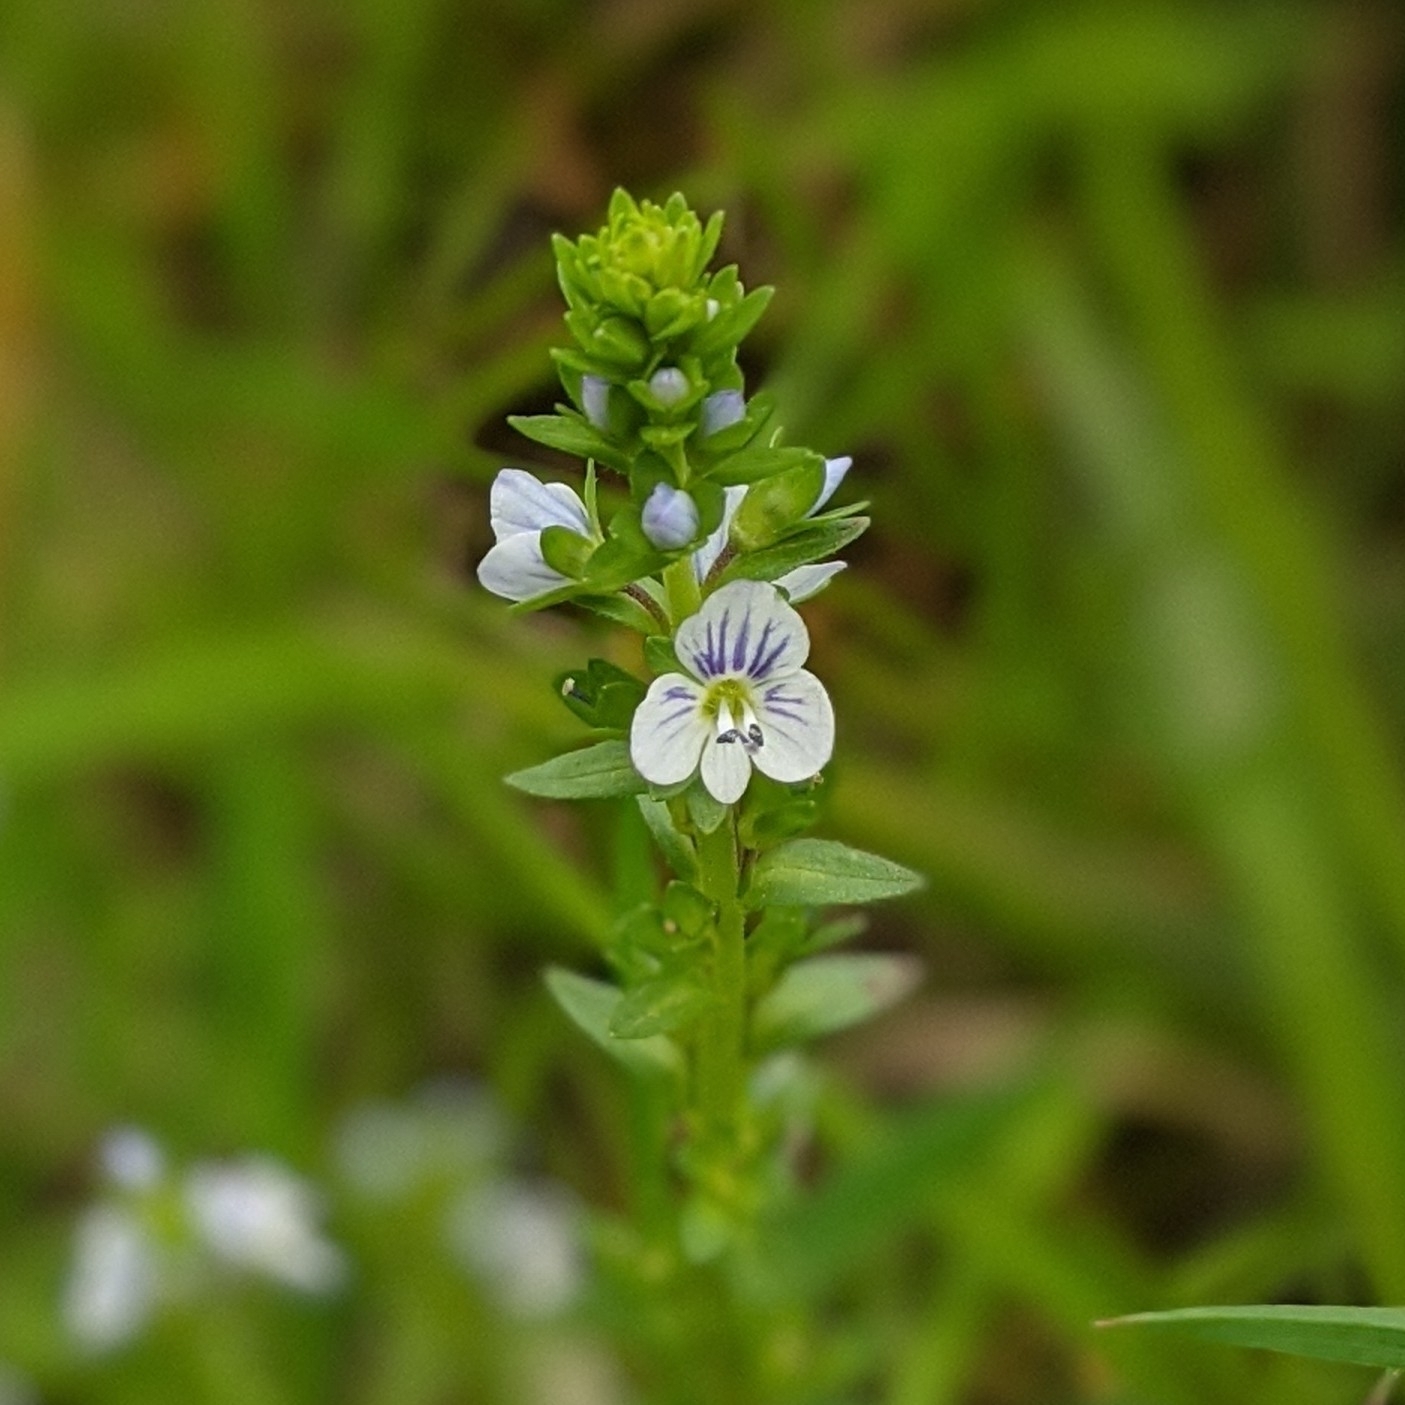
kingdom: Plantae
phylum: Tracheophyta
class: Magnoliopsida
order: Lamiales
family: Plantaginaceae
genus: Veronica
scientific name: Veronica serpyllifolia
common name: Thyme-leaved speedwell
